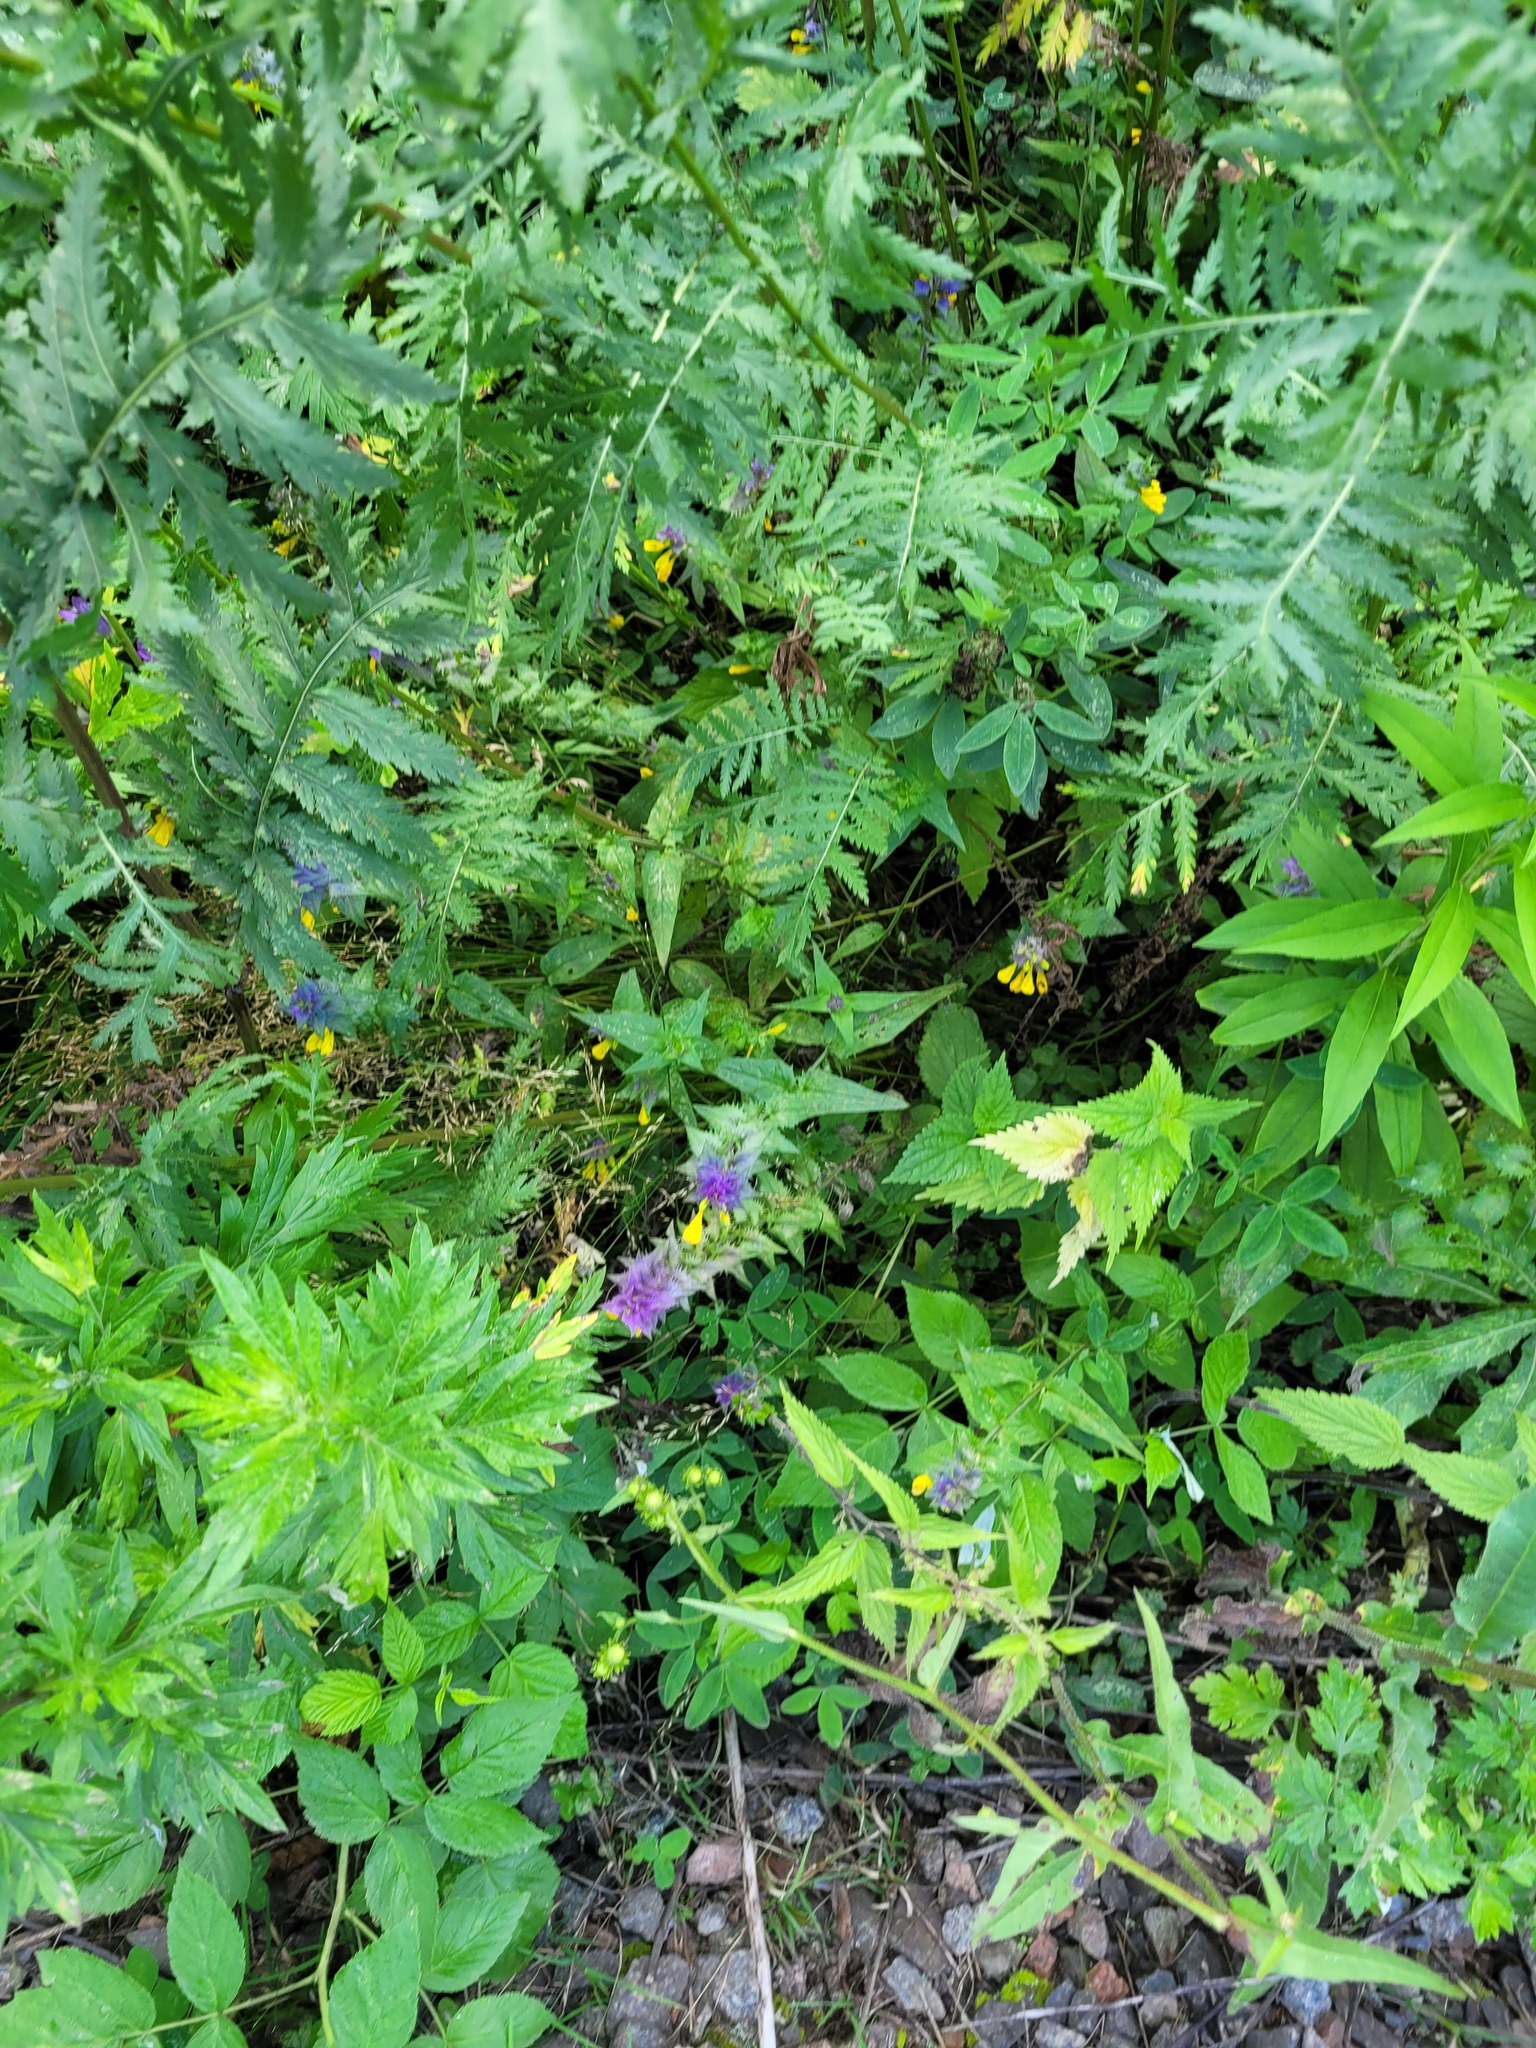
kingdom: Plantae
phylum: Tracheophyta
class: Magnoliopsida
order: Lamiales
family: Orobanchaceae
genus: Melampyrum
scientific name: Melampyrum nemorosum
